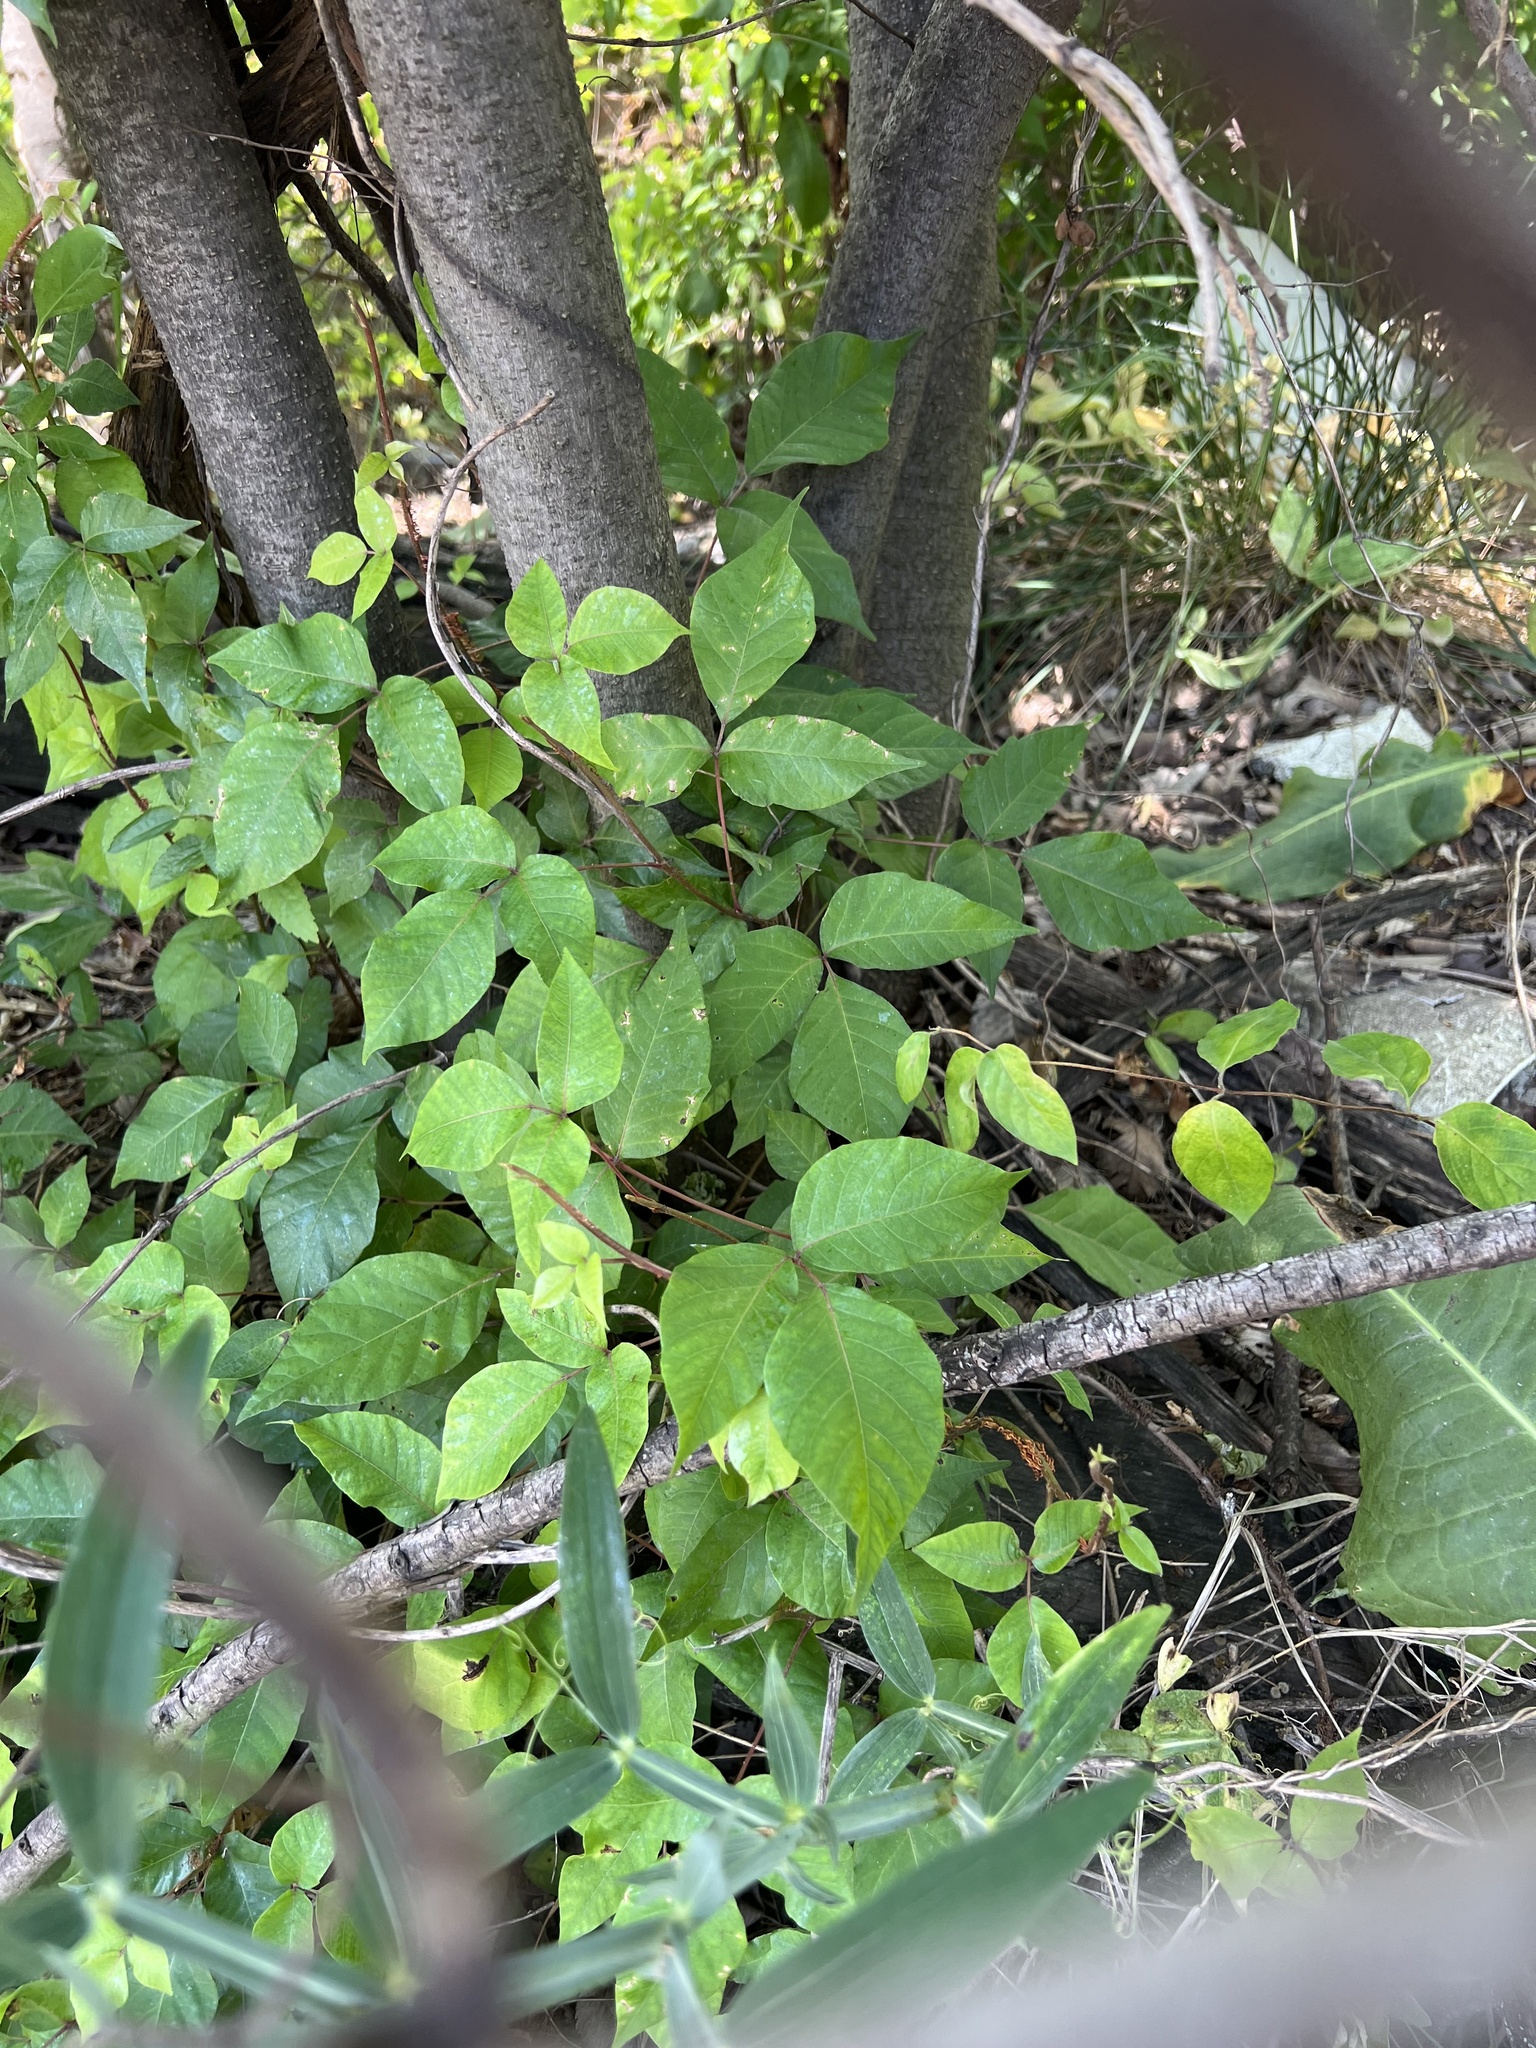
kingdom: Plantae
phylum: Tracheophyta
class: Magnoliopsida
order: Sapindales
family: Anacardiaceae
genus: Toxicodendron
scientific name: Toxicodendron radicans
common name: Poison ivy
